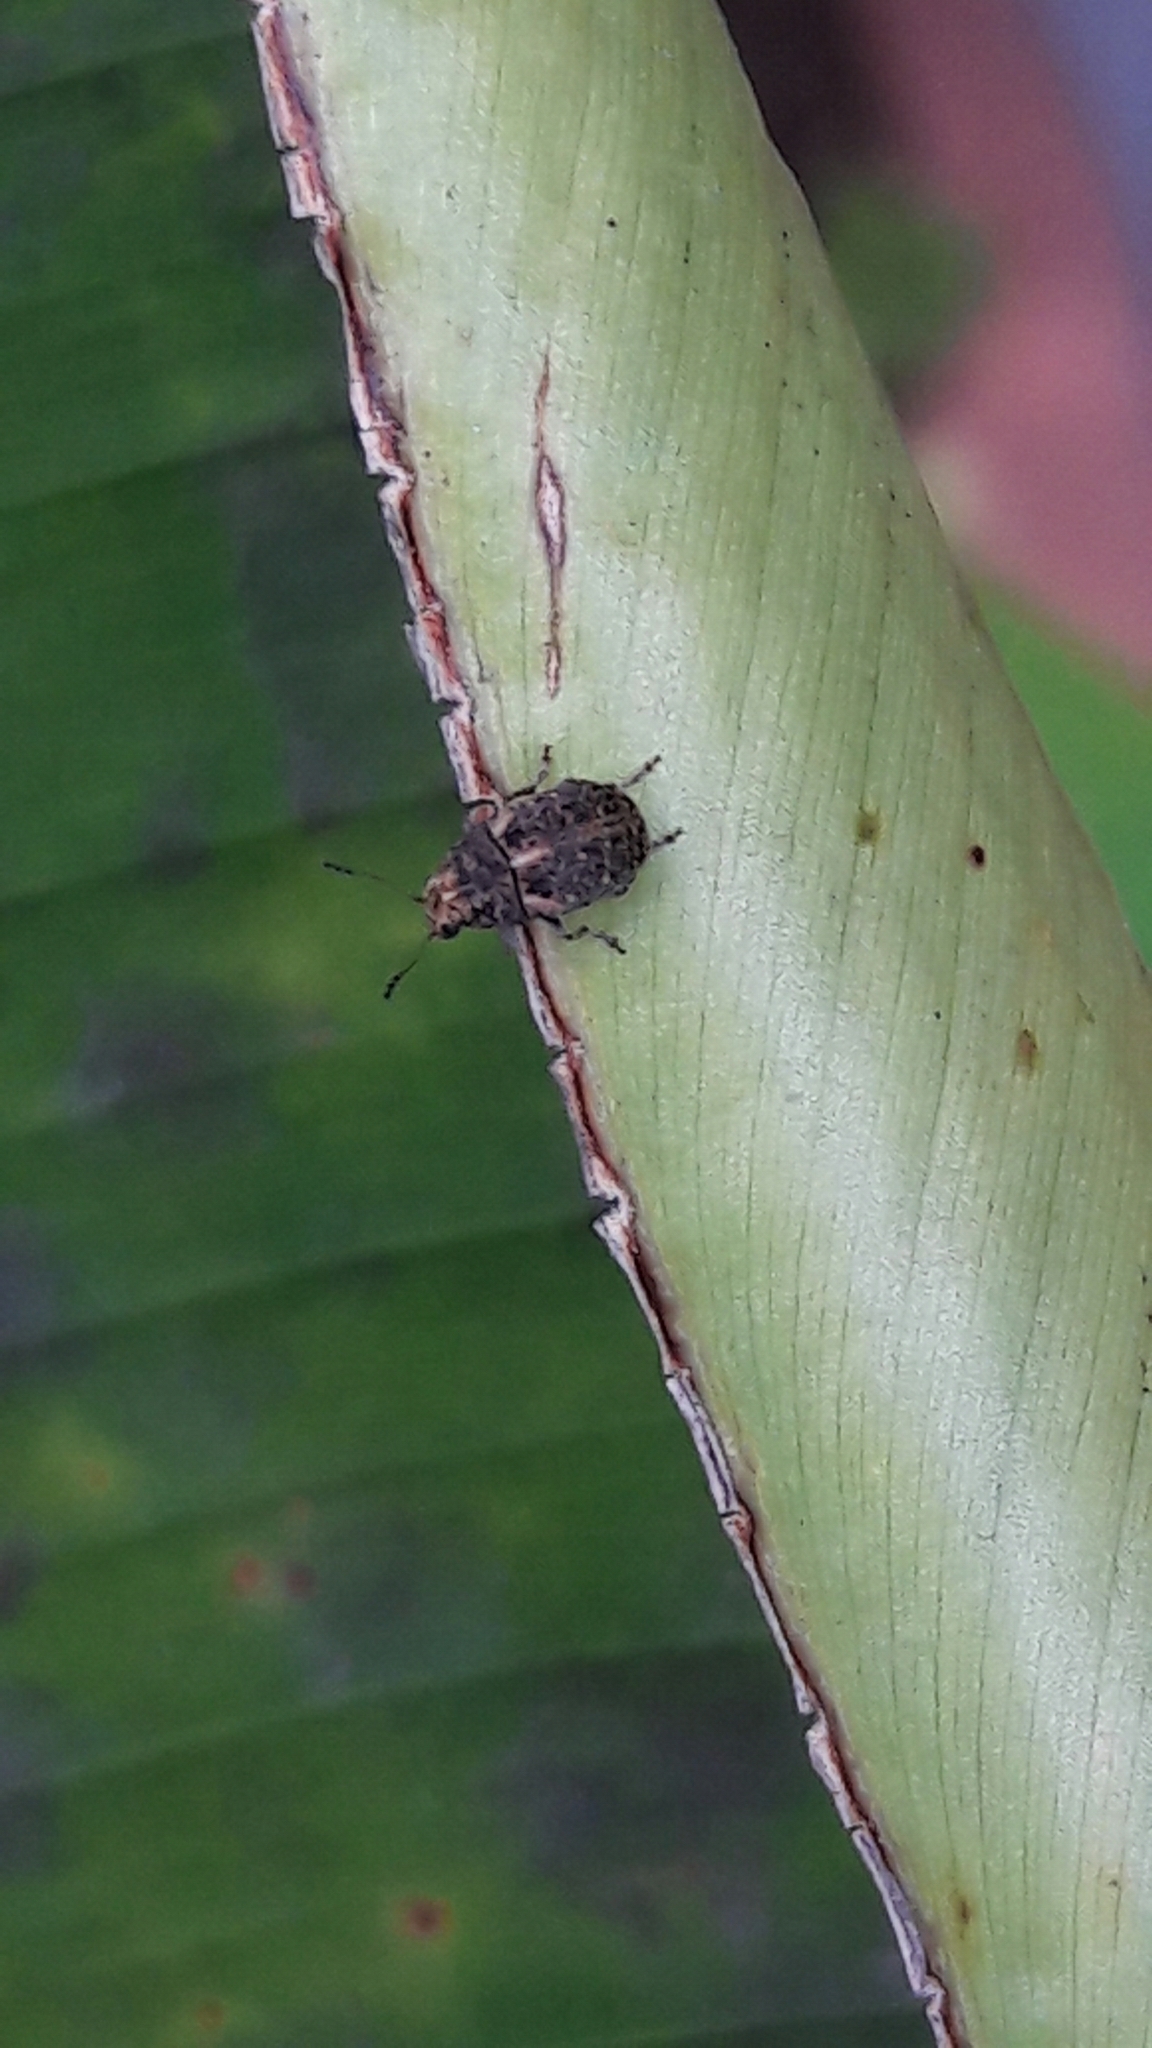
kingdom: Animalia
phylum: Arthropoda
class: Insecta
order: Coleoptera
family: Anthribidae
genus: Araecerus
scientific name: Araecerus fasciculatus
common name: Coffee bean weevil
